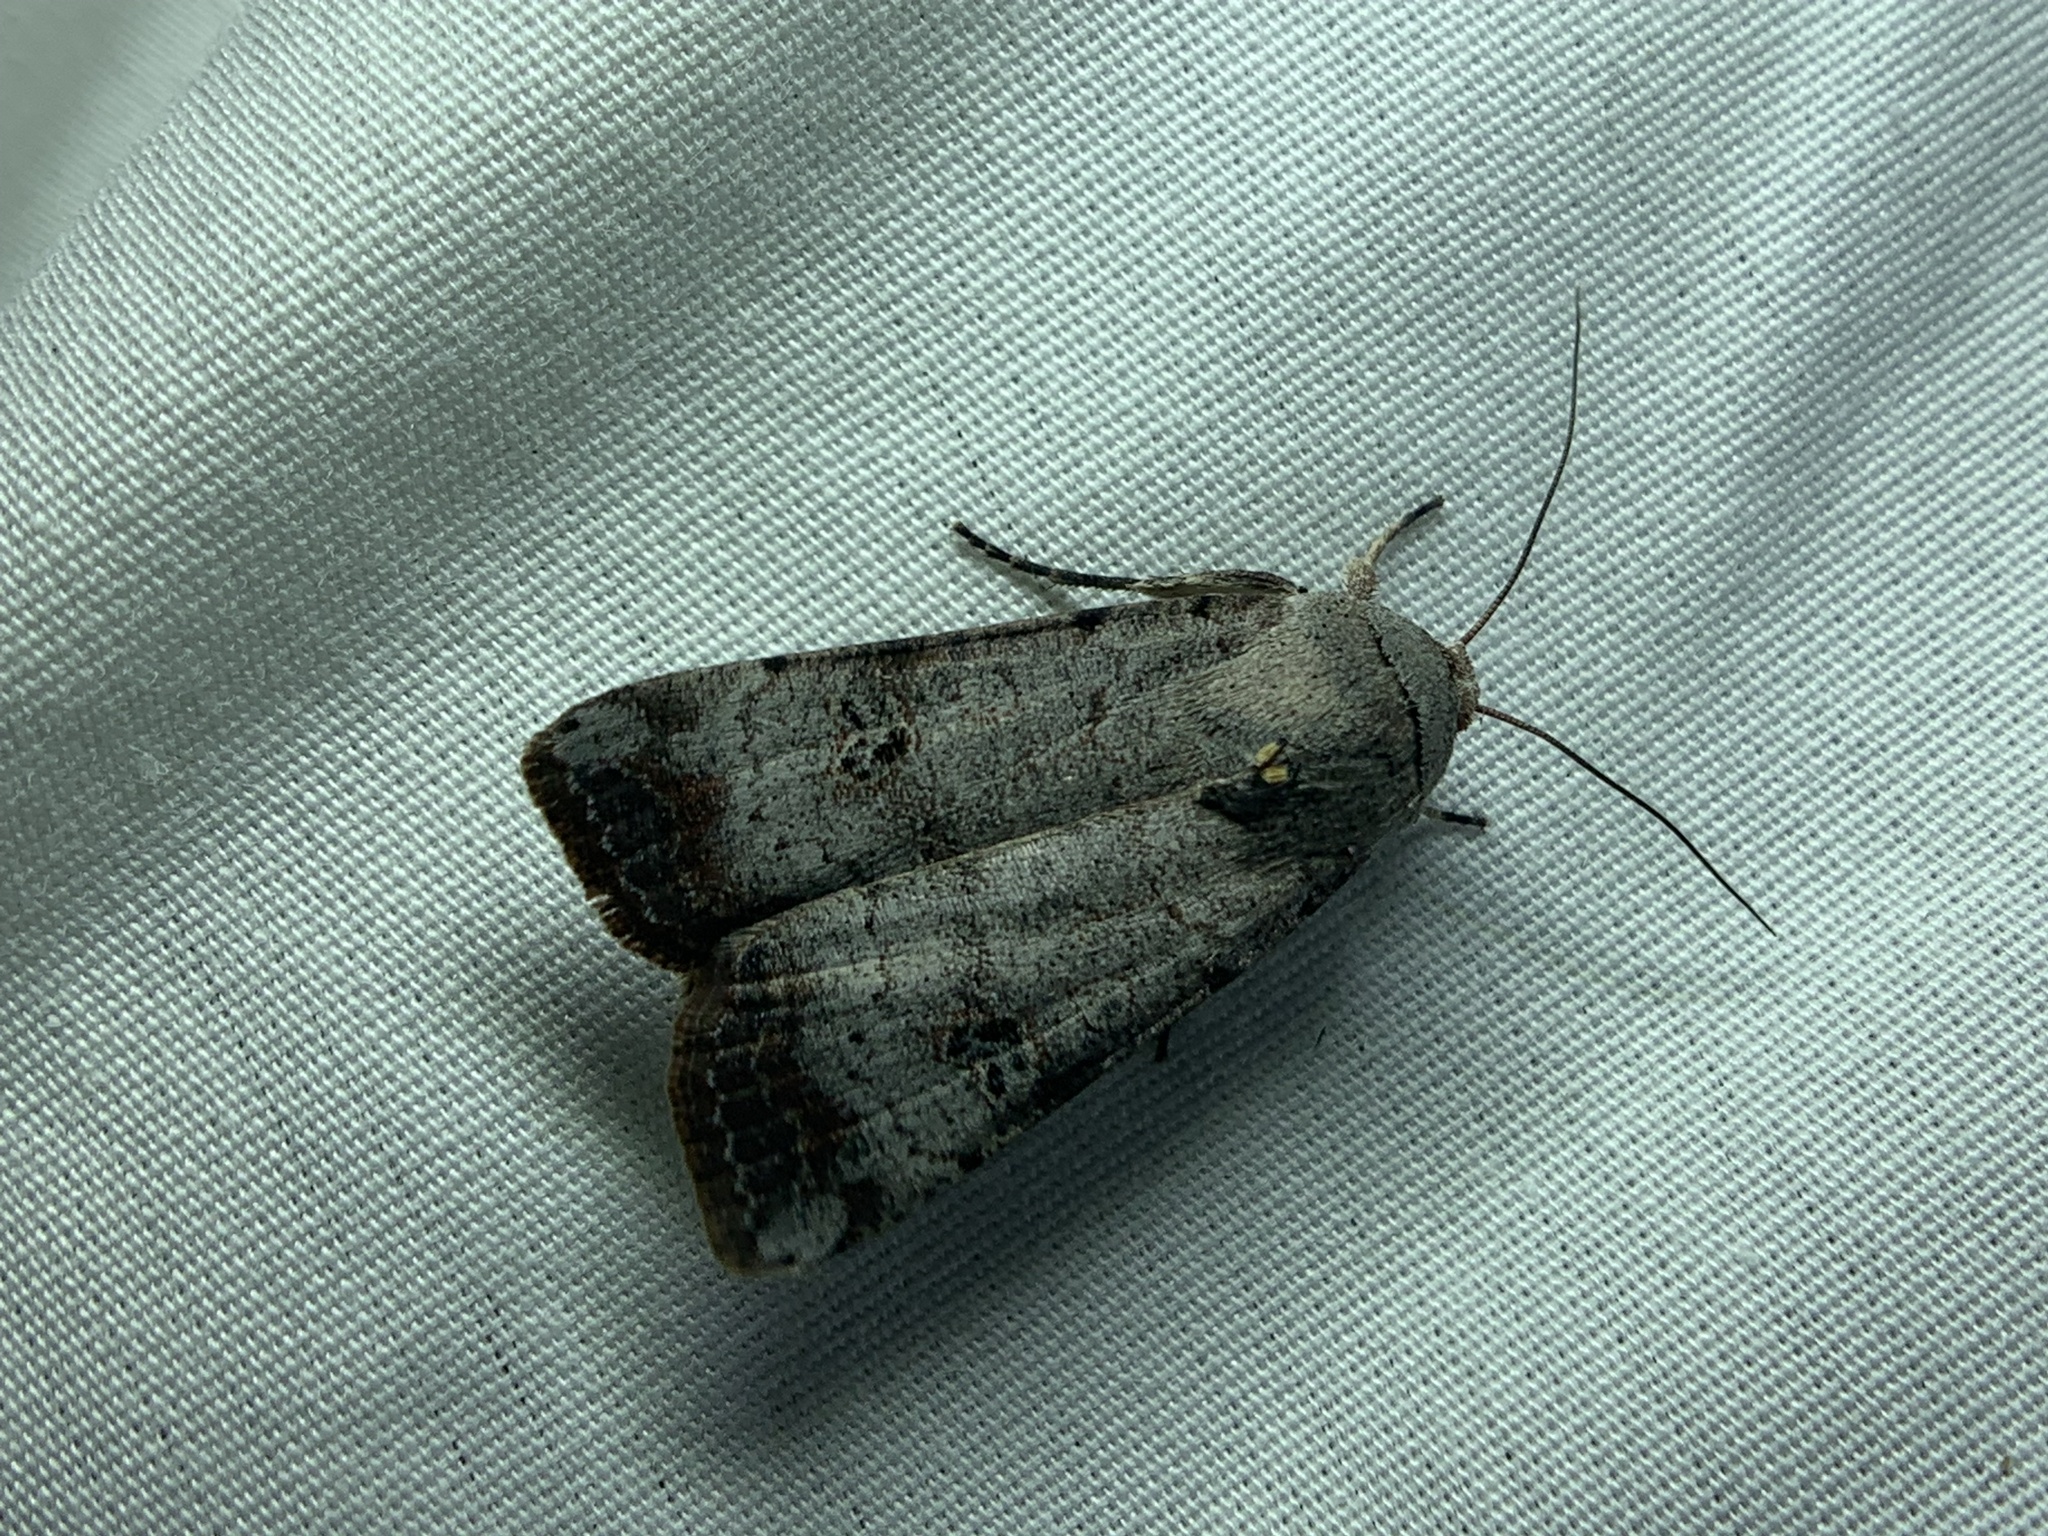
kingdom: Animalia
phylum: Arthropoda
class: Insecta
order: Lepidoptera
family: Noctuidae
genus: Anicla
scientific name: Anicla infecta
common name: Green cutworm
